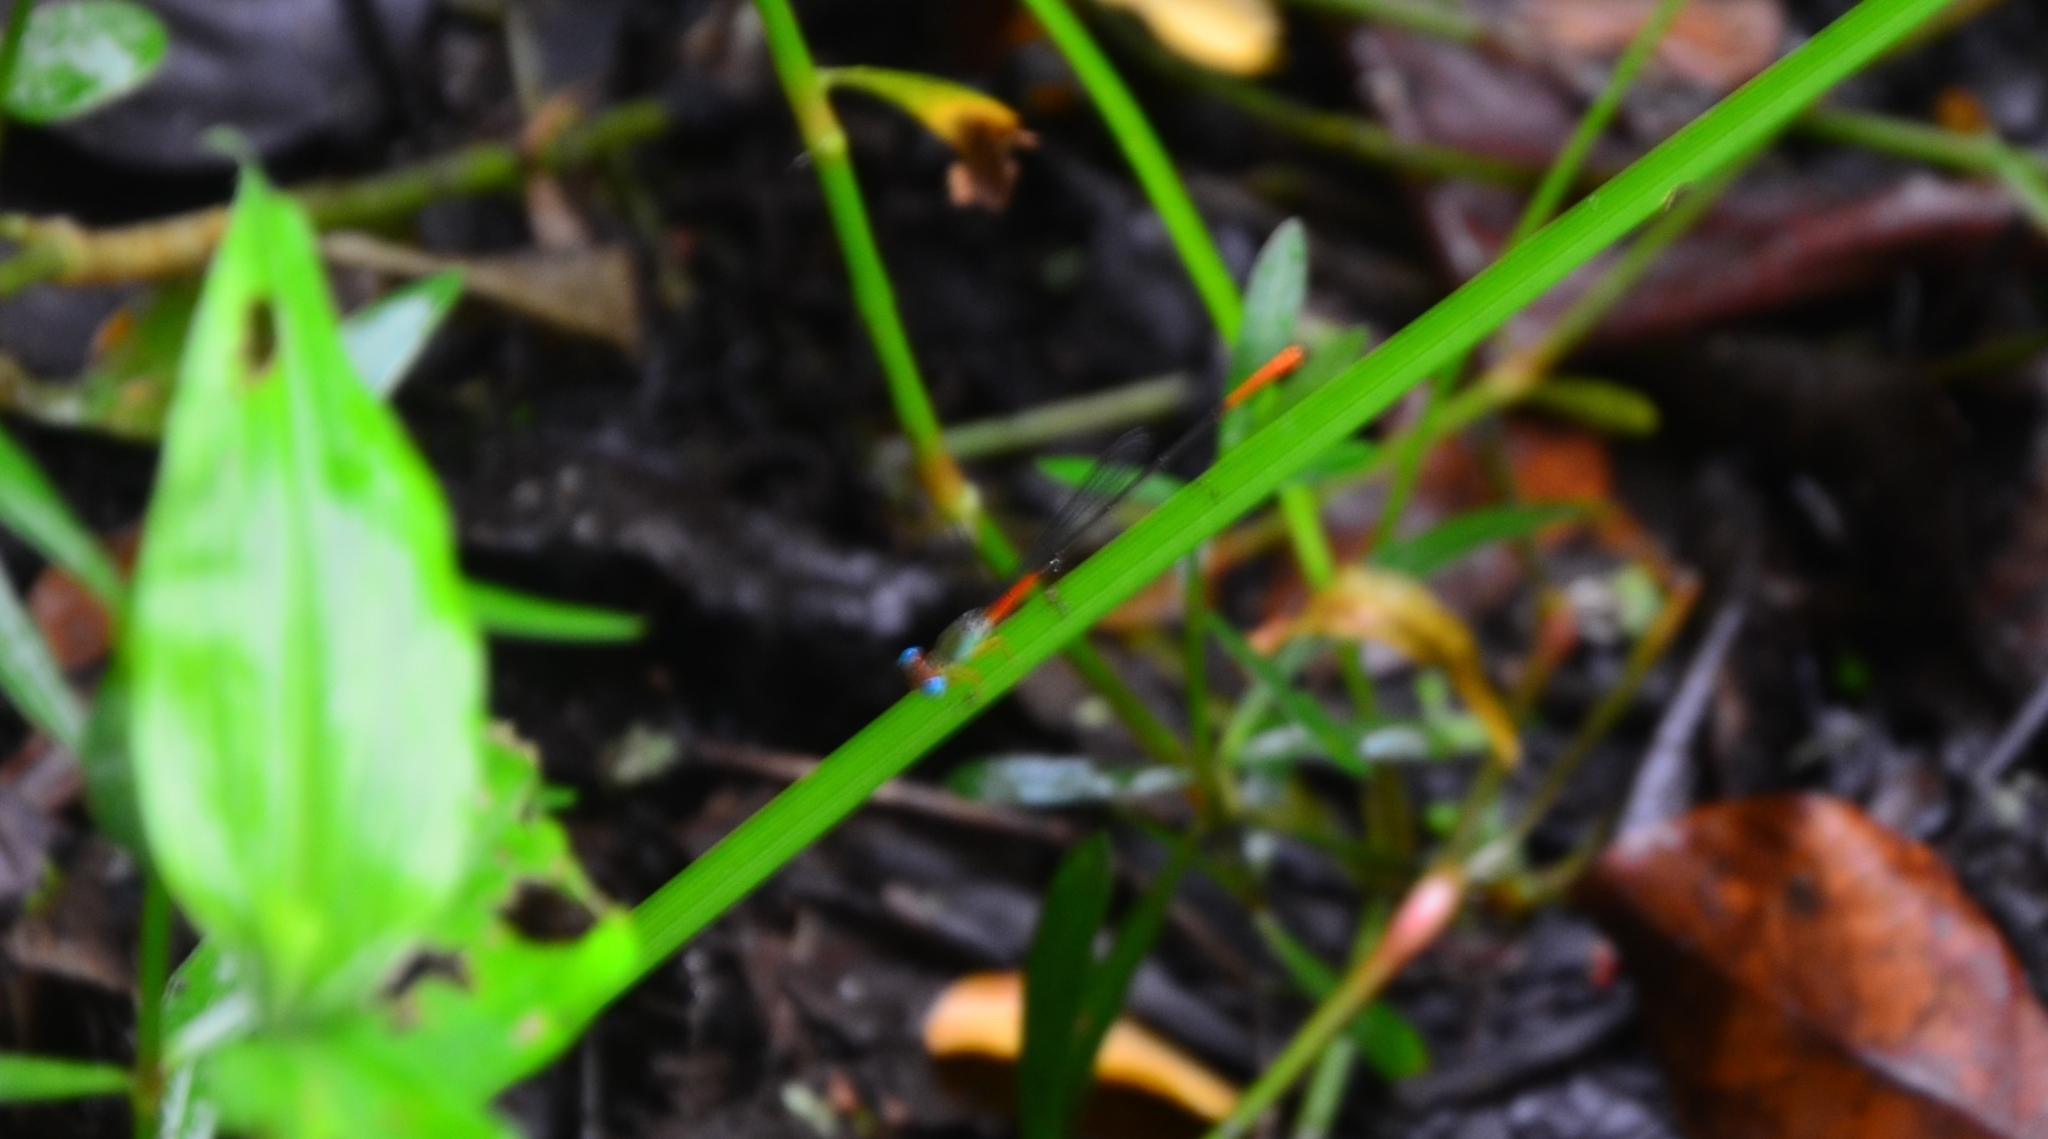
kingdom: Animalia
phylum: Arthropoda
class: Insecta
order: Odonata
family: Coenagrionidae
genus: Ceriagrion
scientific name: Ceriagrion cerinorubellum
